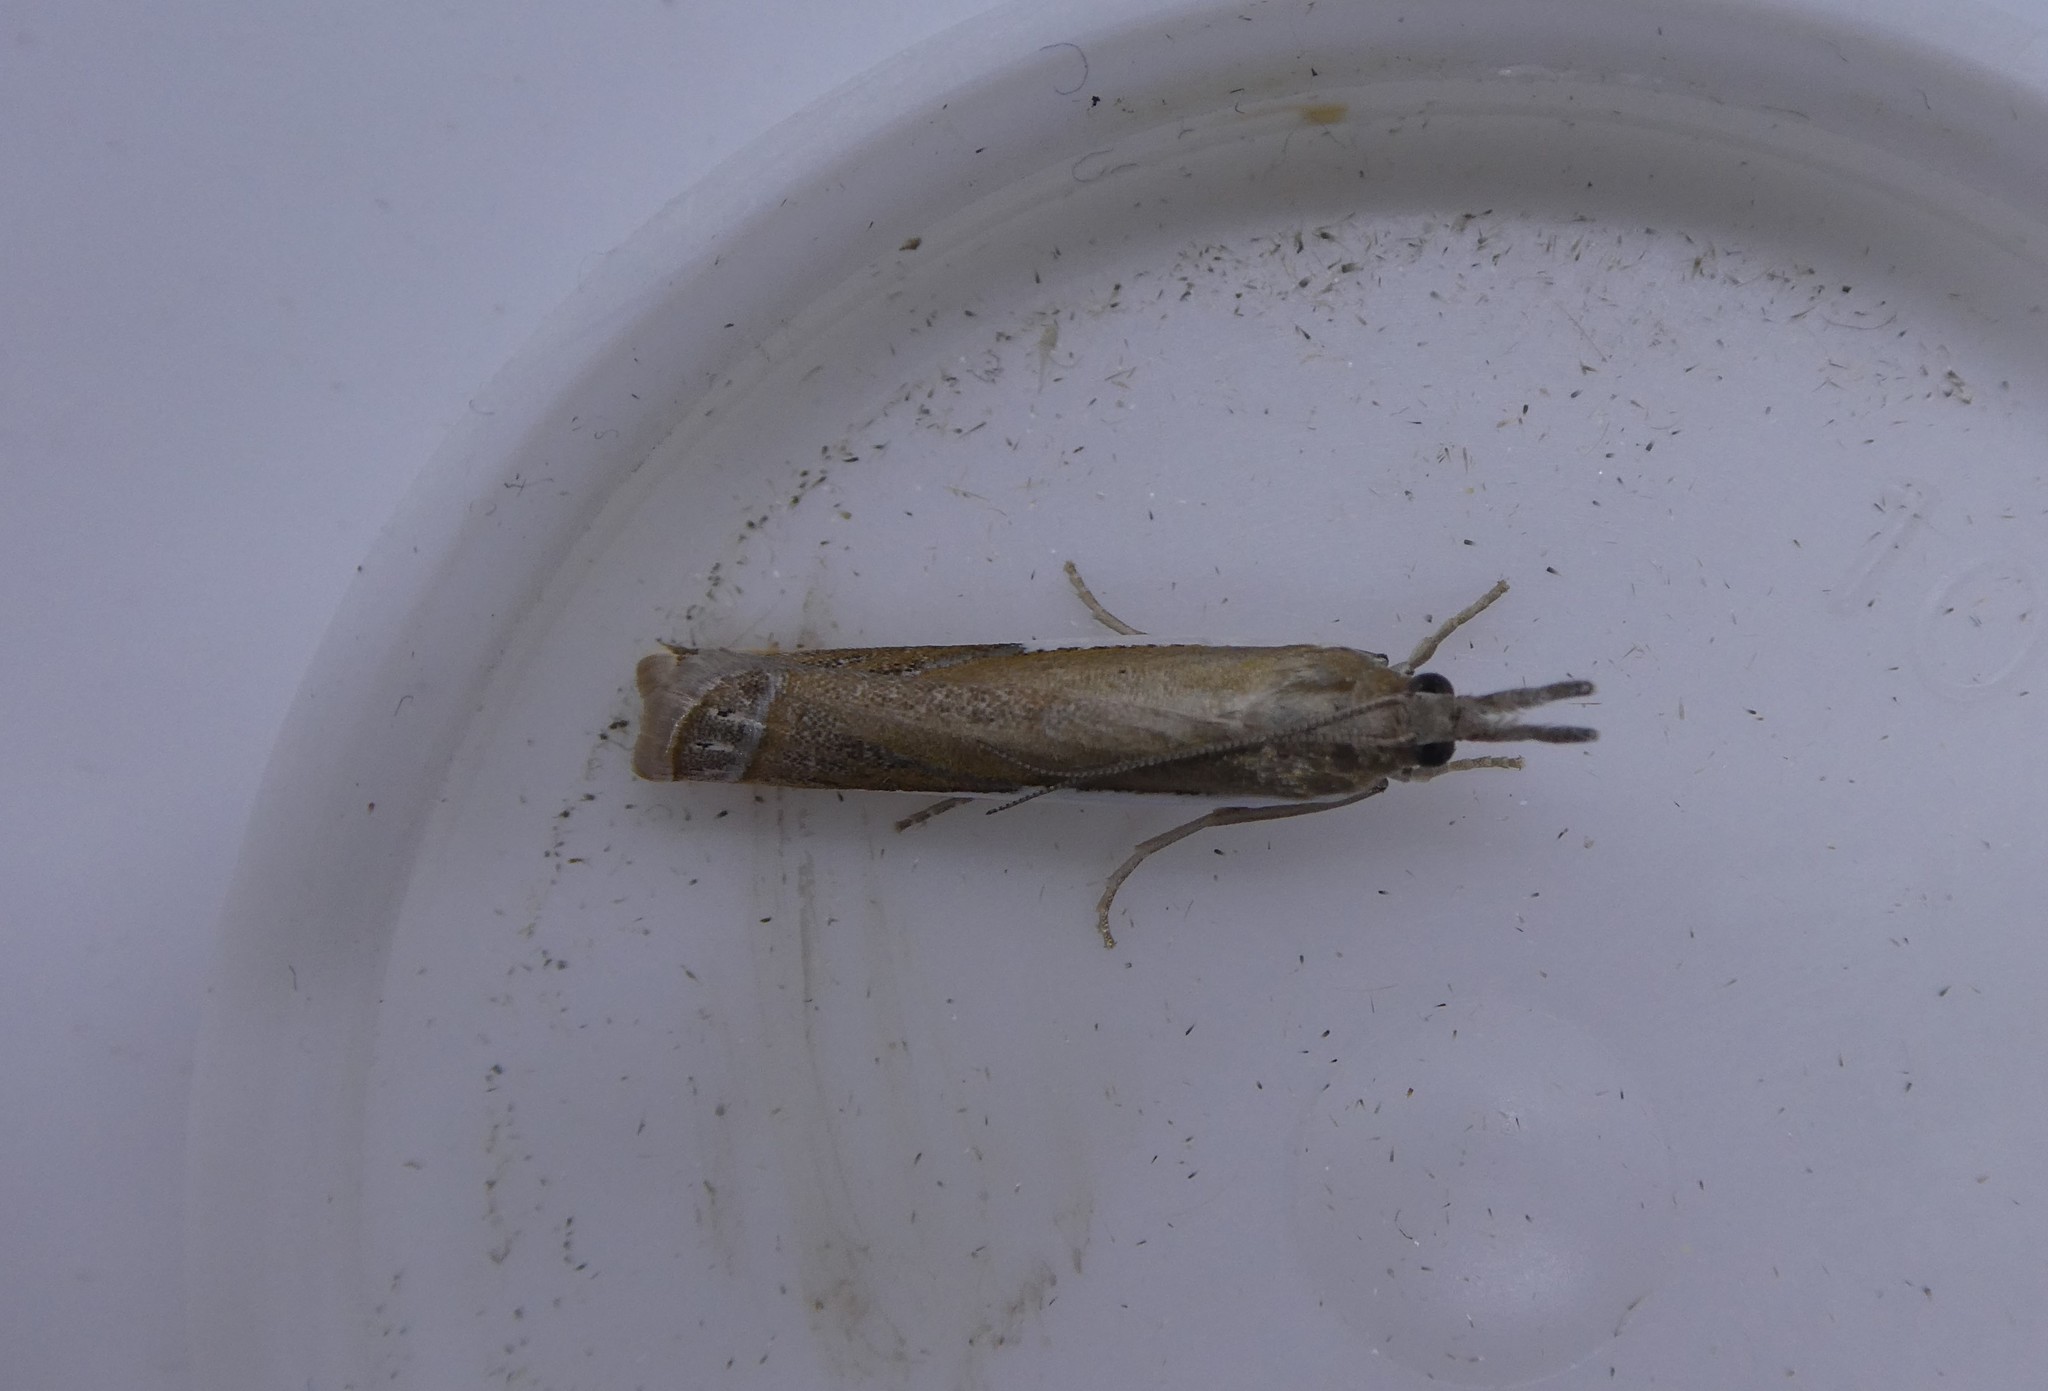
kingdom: Animalia
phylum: Arthropoda
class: Insecta
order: Lepidoptera
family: Crambidae
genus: Crambus
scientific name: Crambus praefectellus
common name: Common grass-veneer
